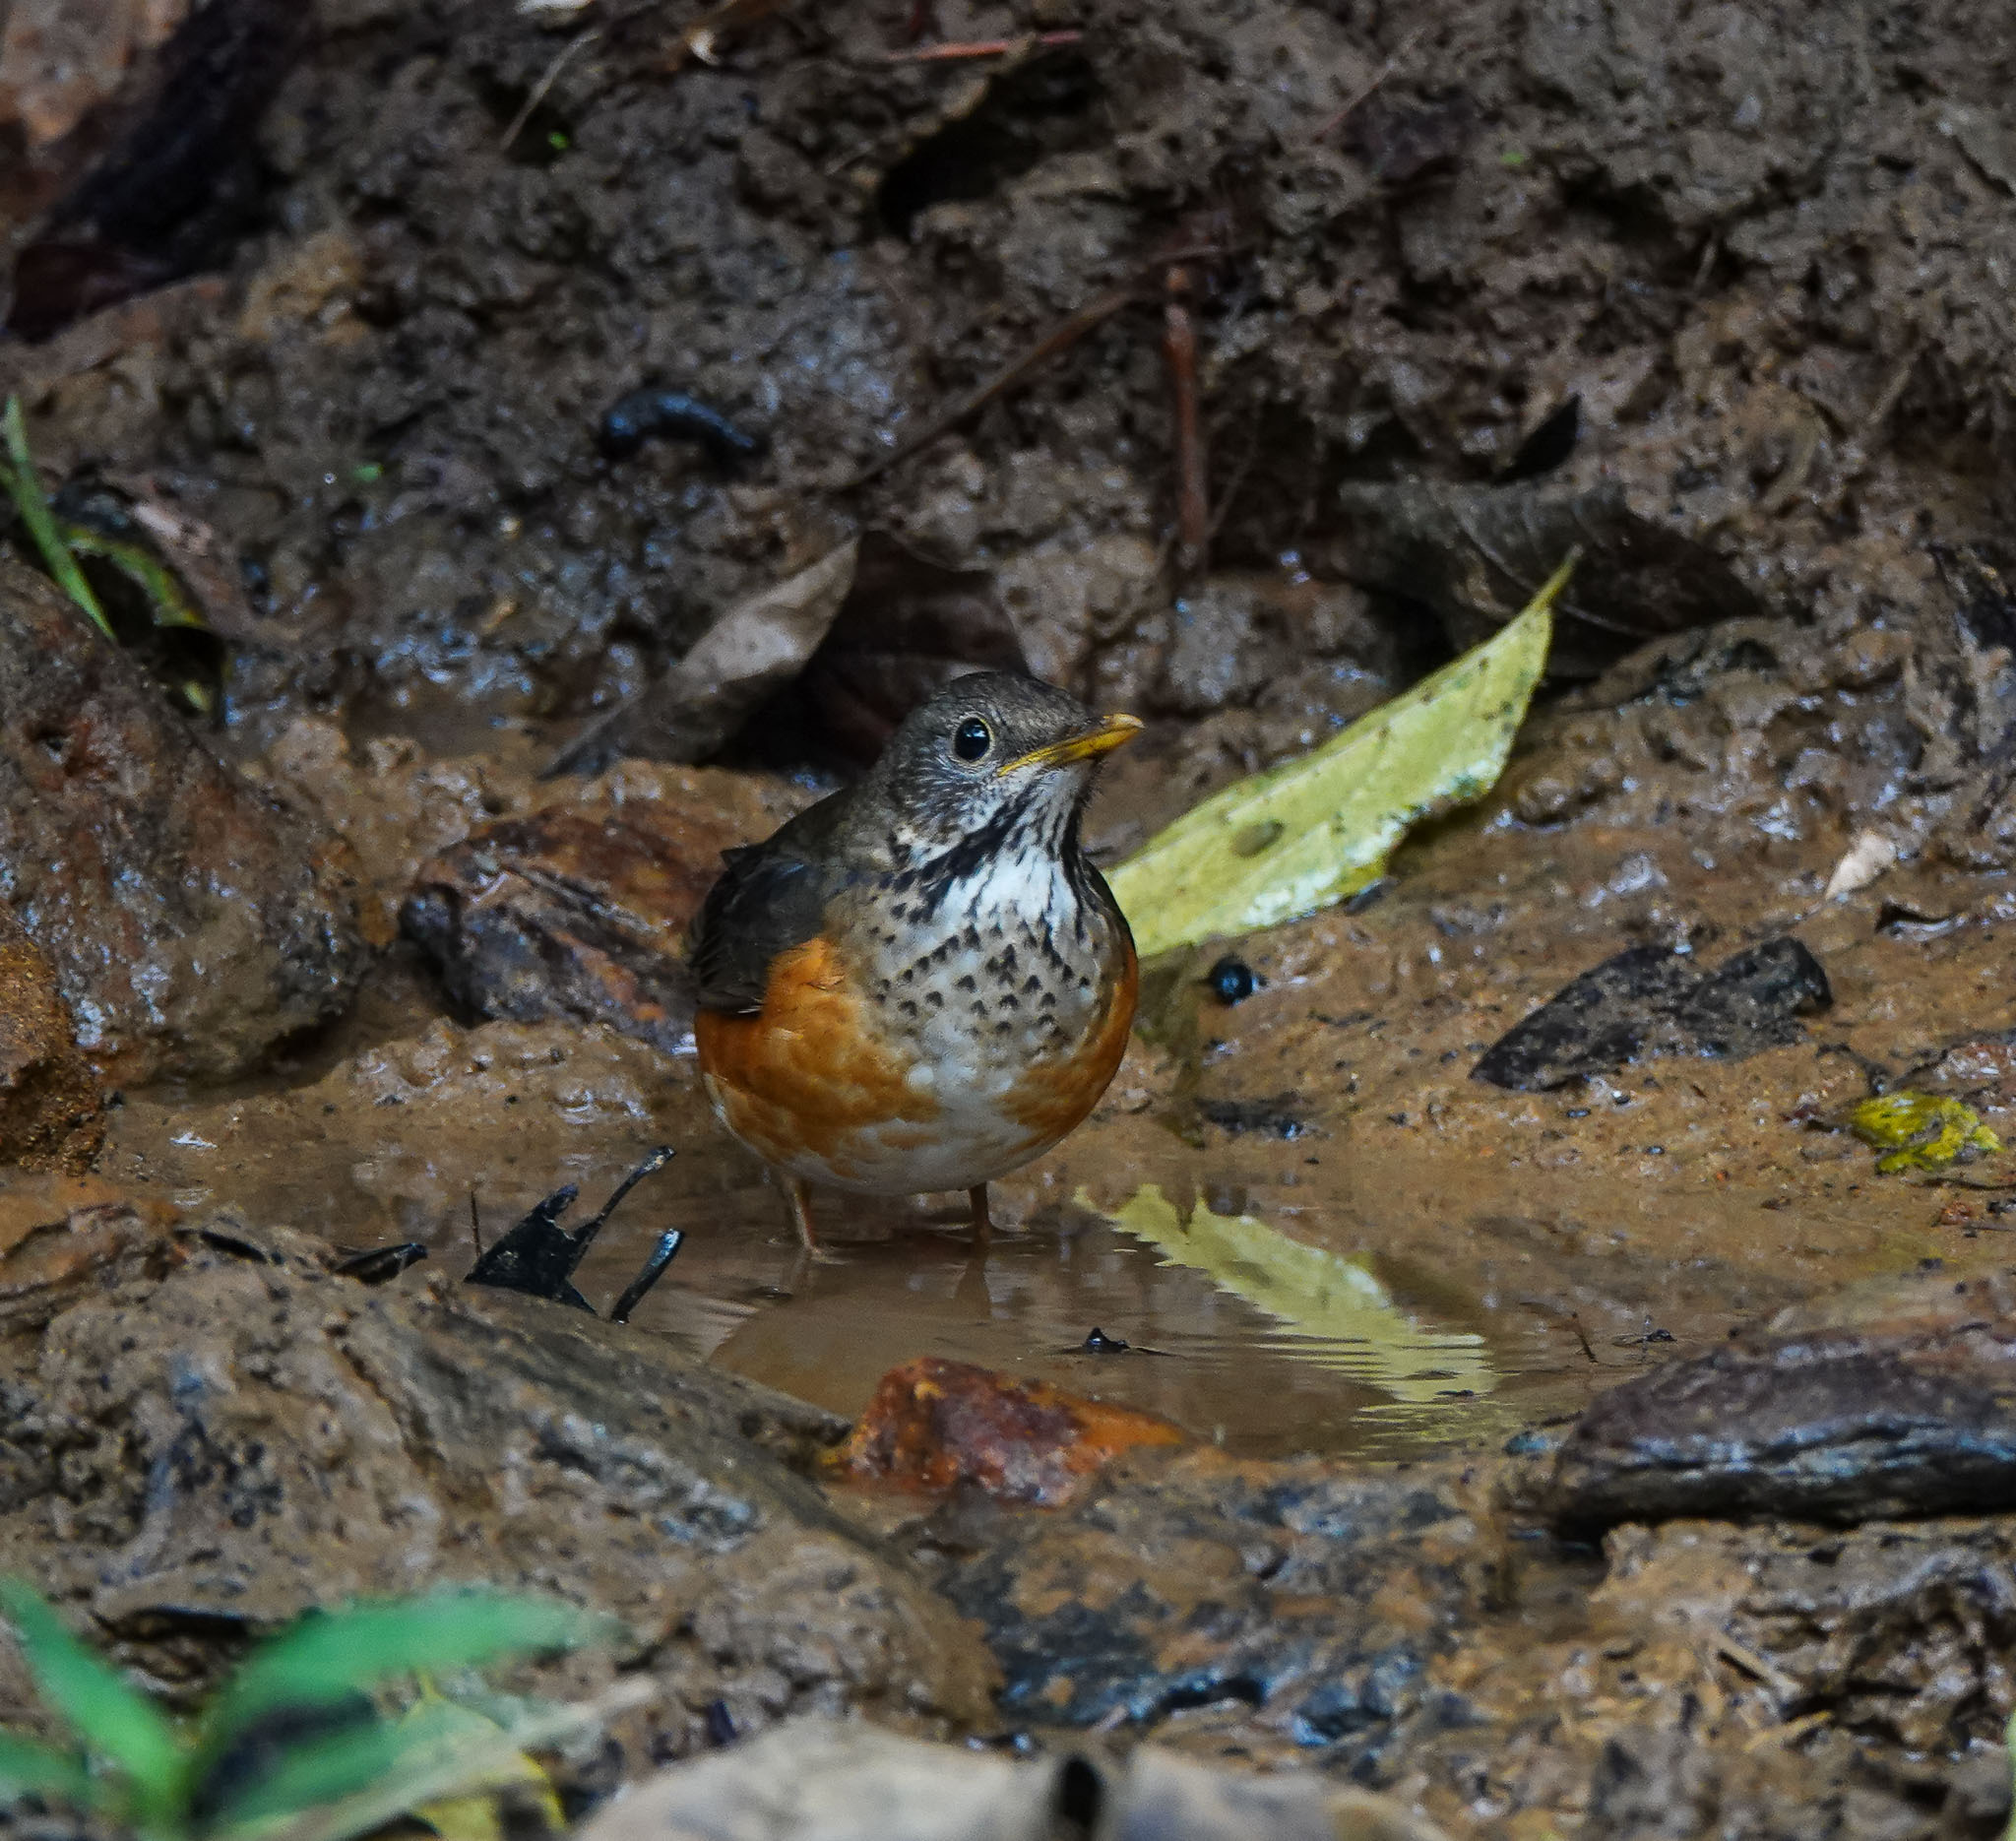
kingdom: Animalia
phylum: Chordata
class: Aves
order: Passeriformes
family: Turdidae
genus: Turdus
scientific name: Turdus dissimilis
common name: Black-breasted thrush
